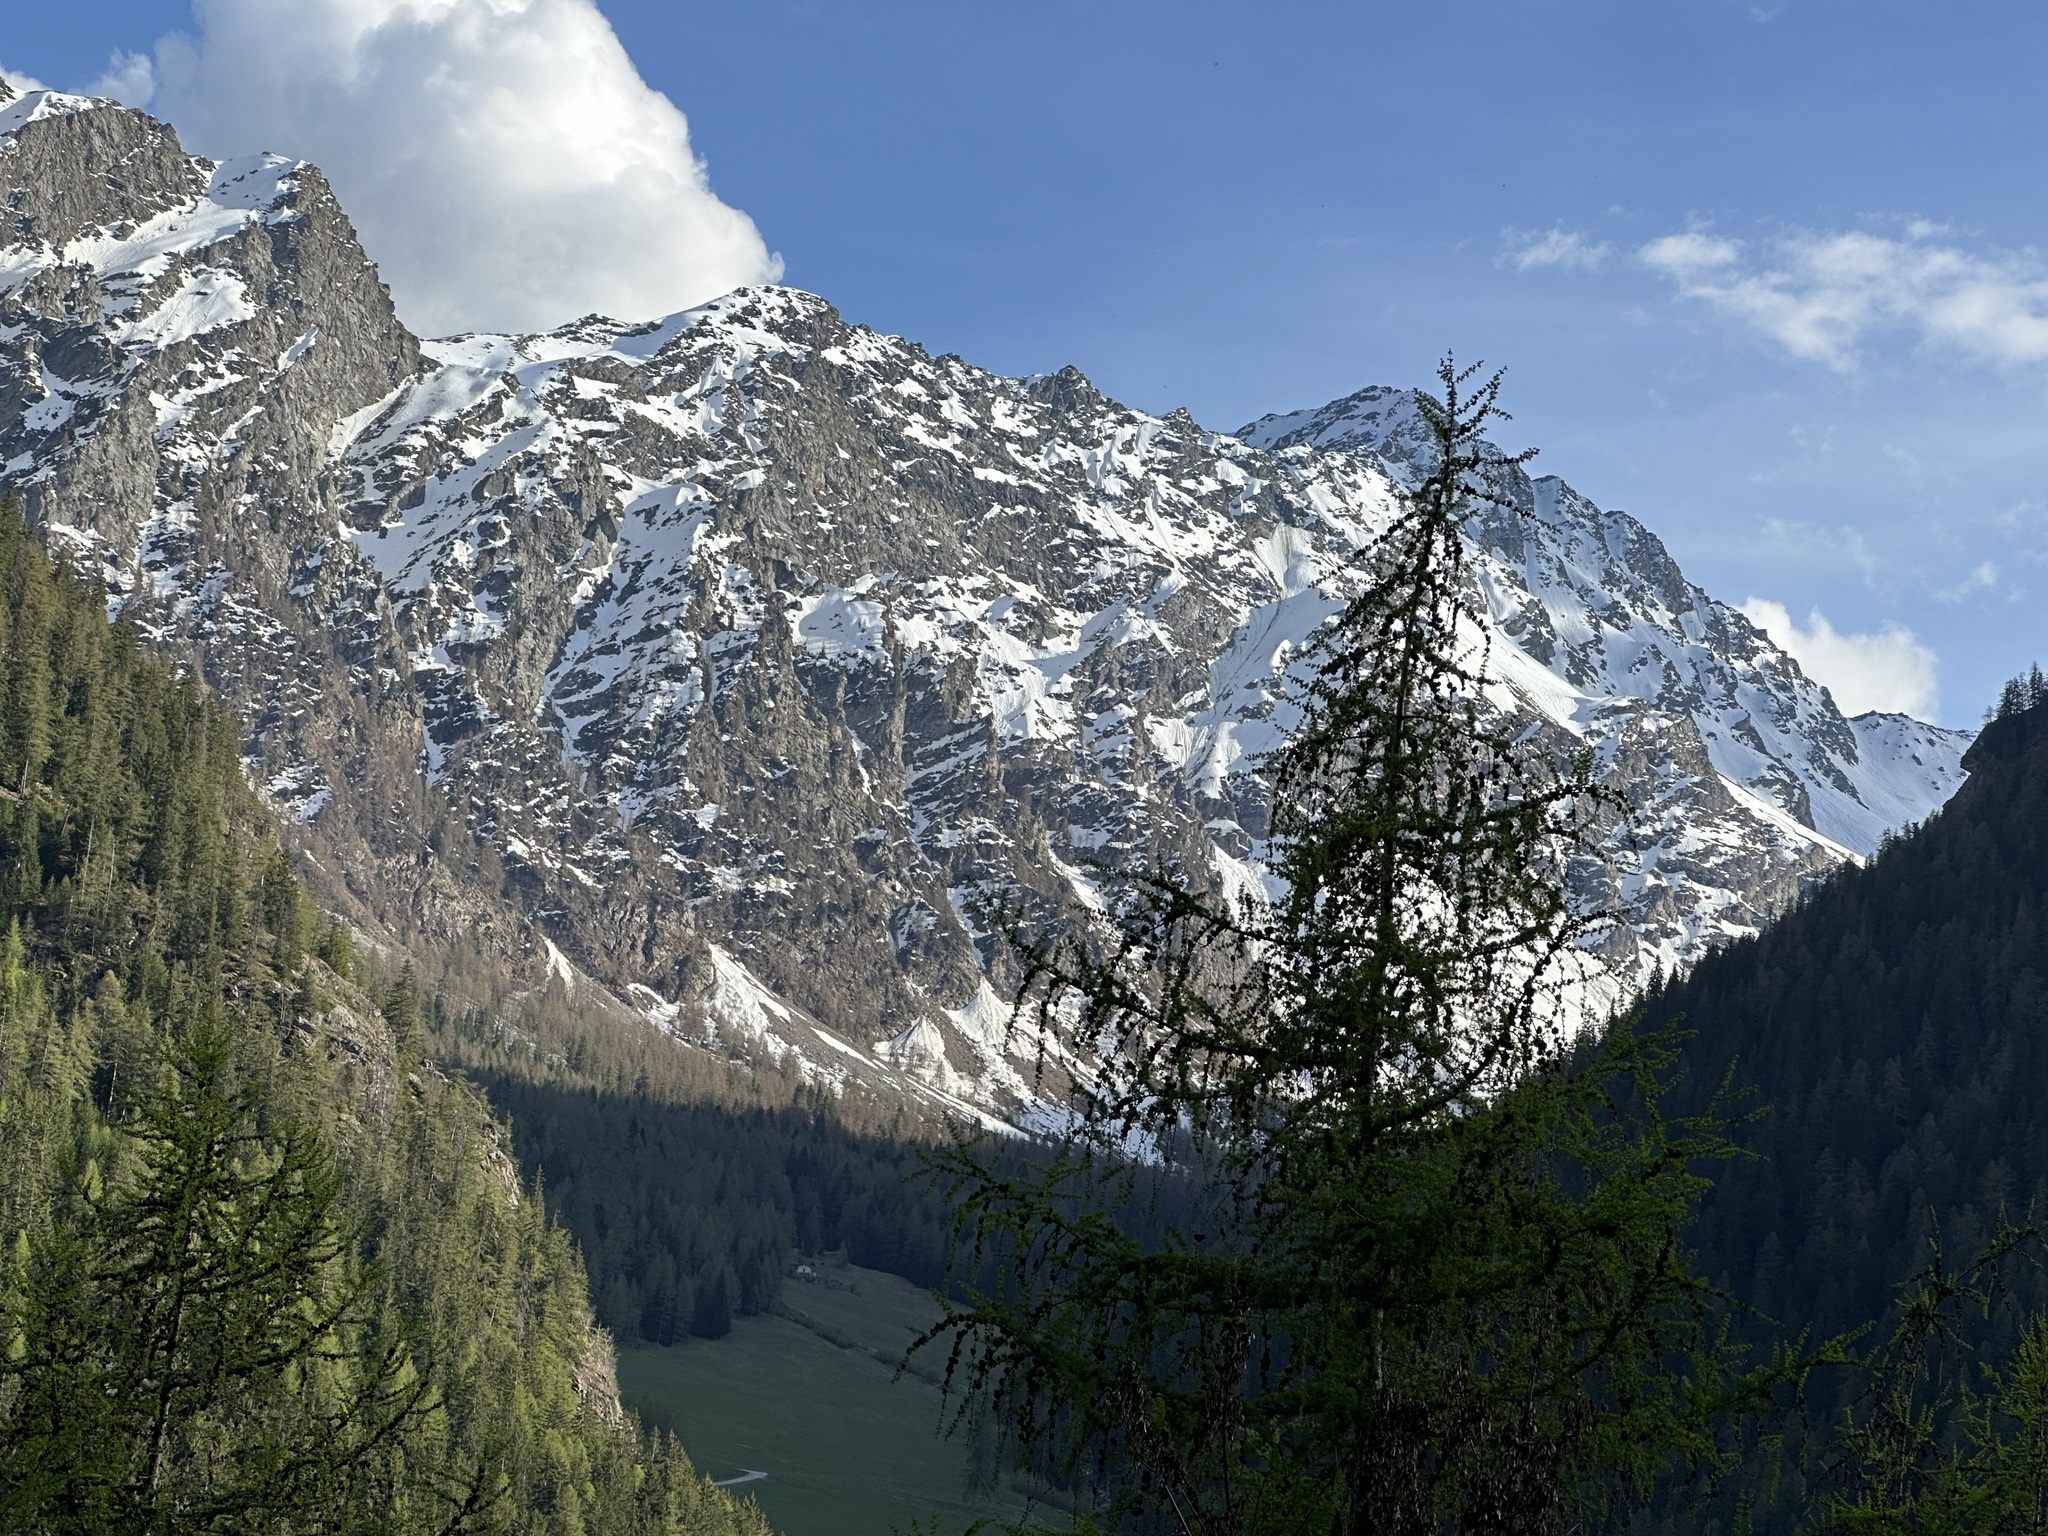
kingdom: Plantae
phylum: Tracheophyta
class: Pinopsida
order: Pinales
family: Pinaceae
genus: Larix
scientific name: Larix decidua
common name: European larch
